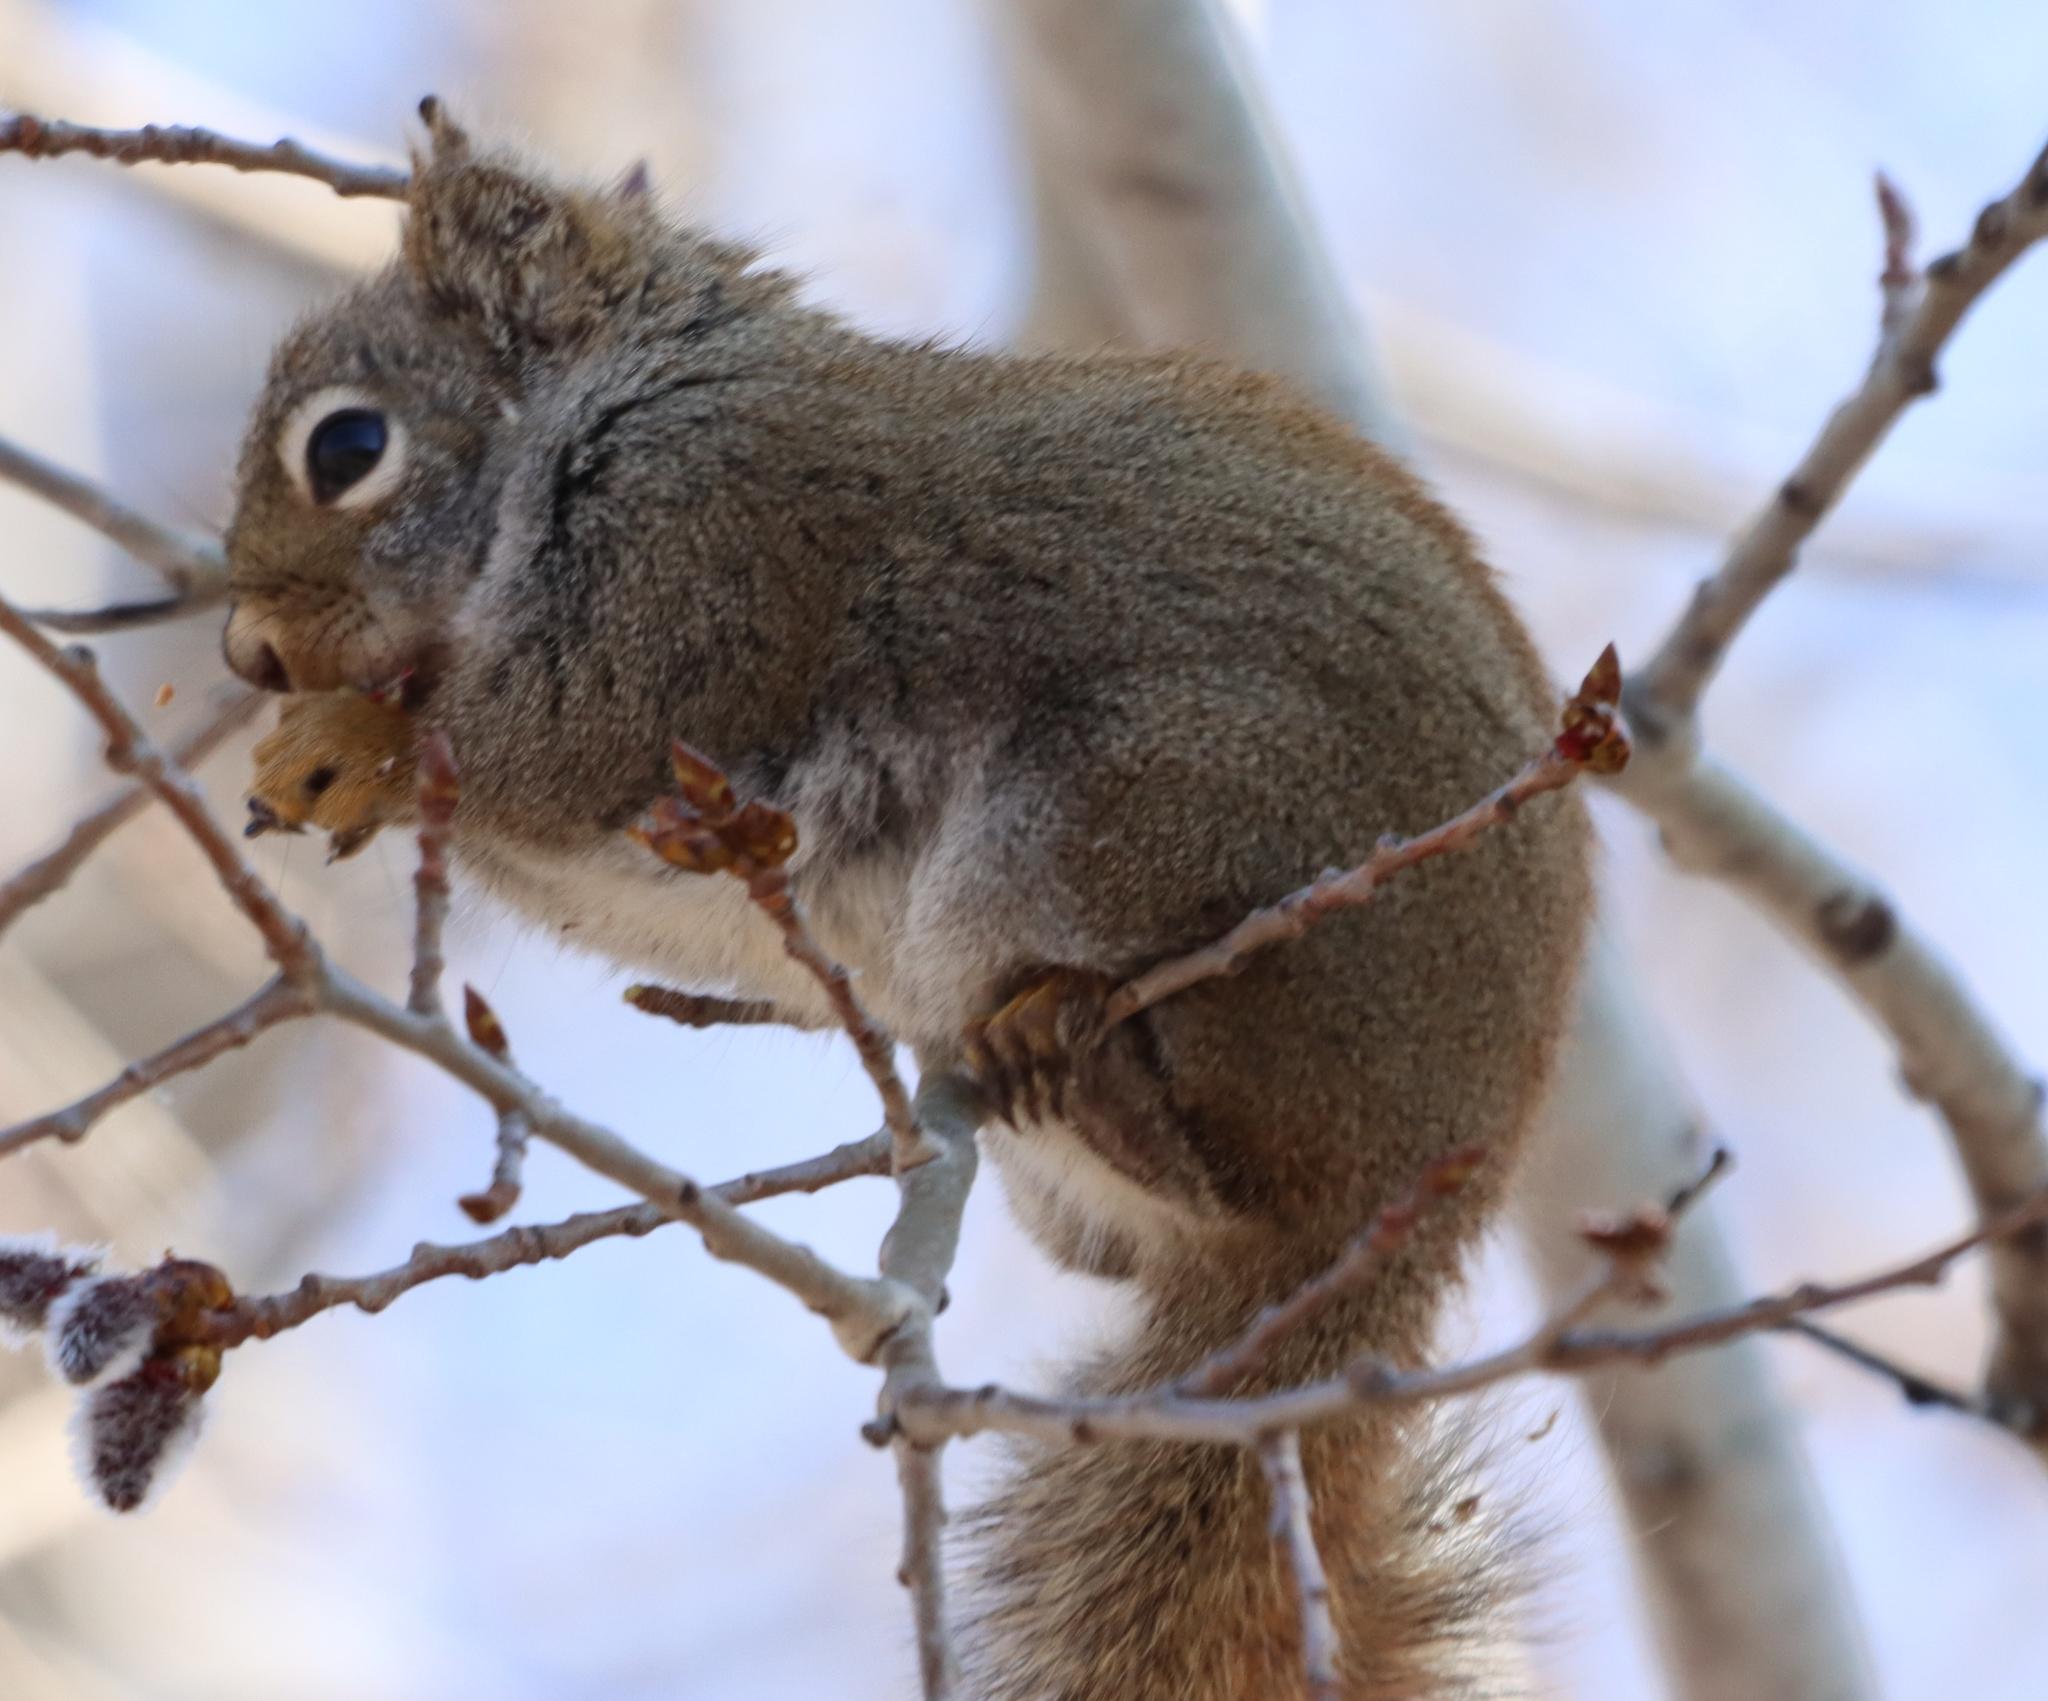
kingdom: Animalia
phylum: Chordata
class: Mammalia
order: Rodentia
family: Sciuridae
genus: Tamiasciurus
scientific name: Tamiasciurus hudsonicus
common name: Red squirrel
